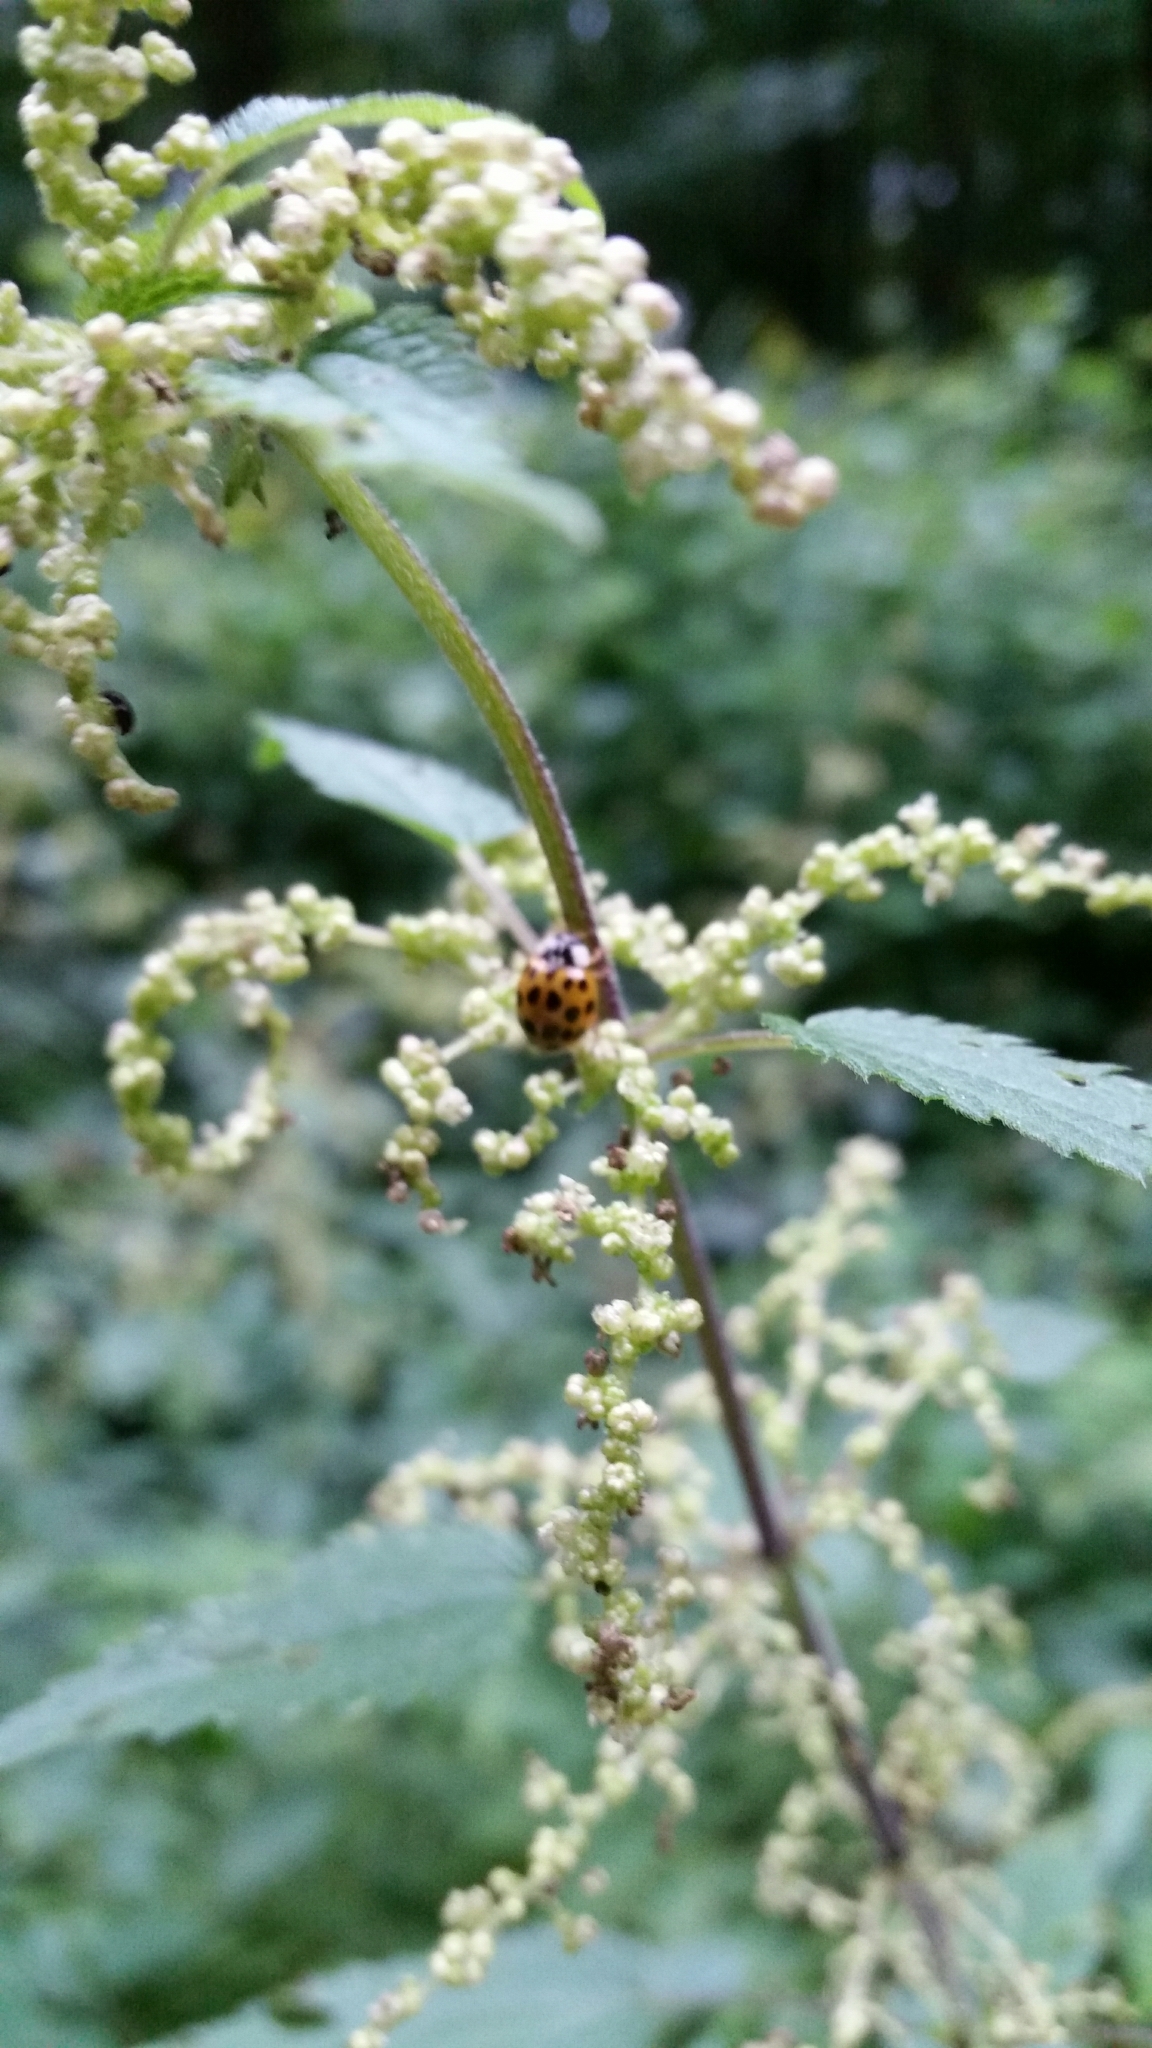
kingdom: Animalia
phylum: Arthropoda
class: Insecta
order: Coleoptera
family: Coccinellidae
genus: Harmonia
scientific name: Harmonia axyridis
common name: Harlequin ladybird
